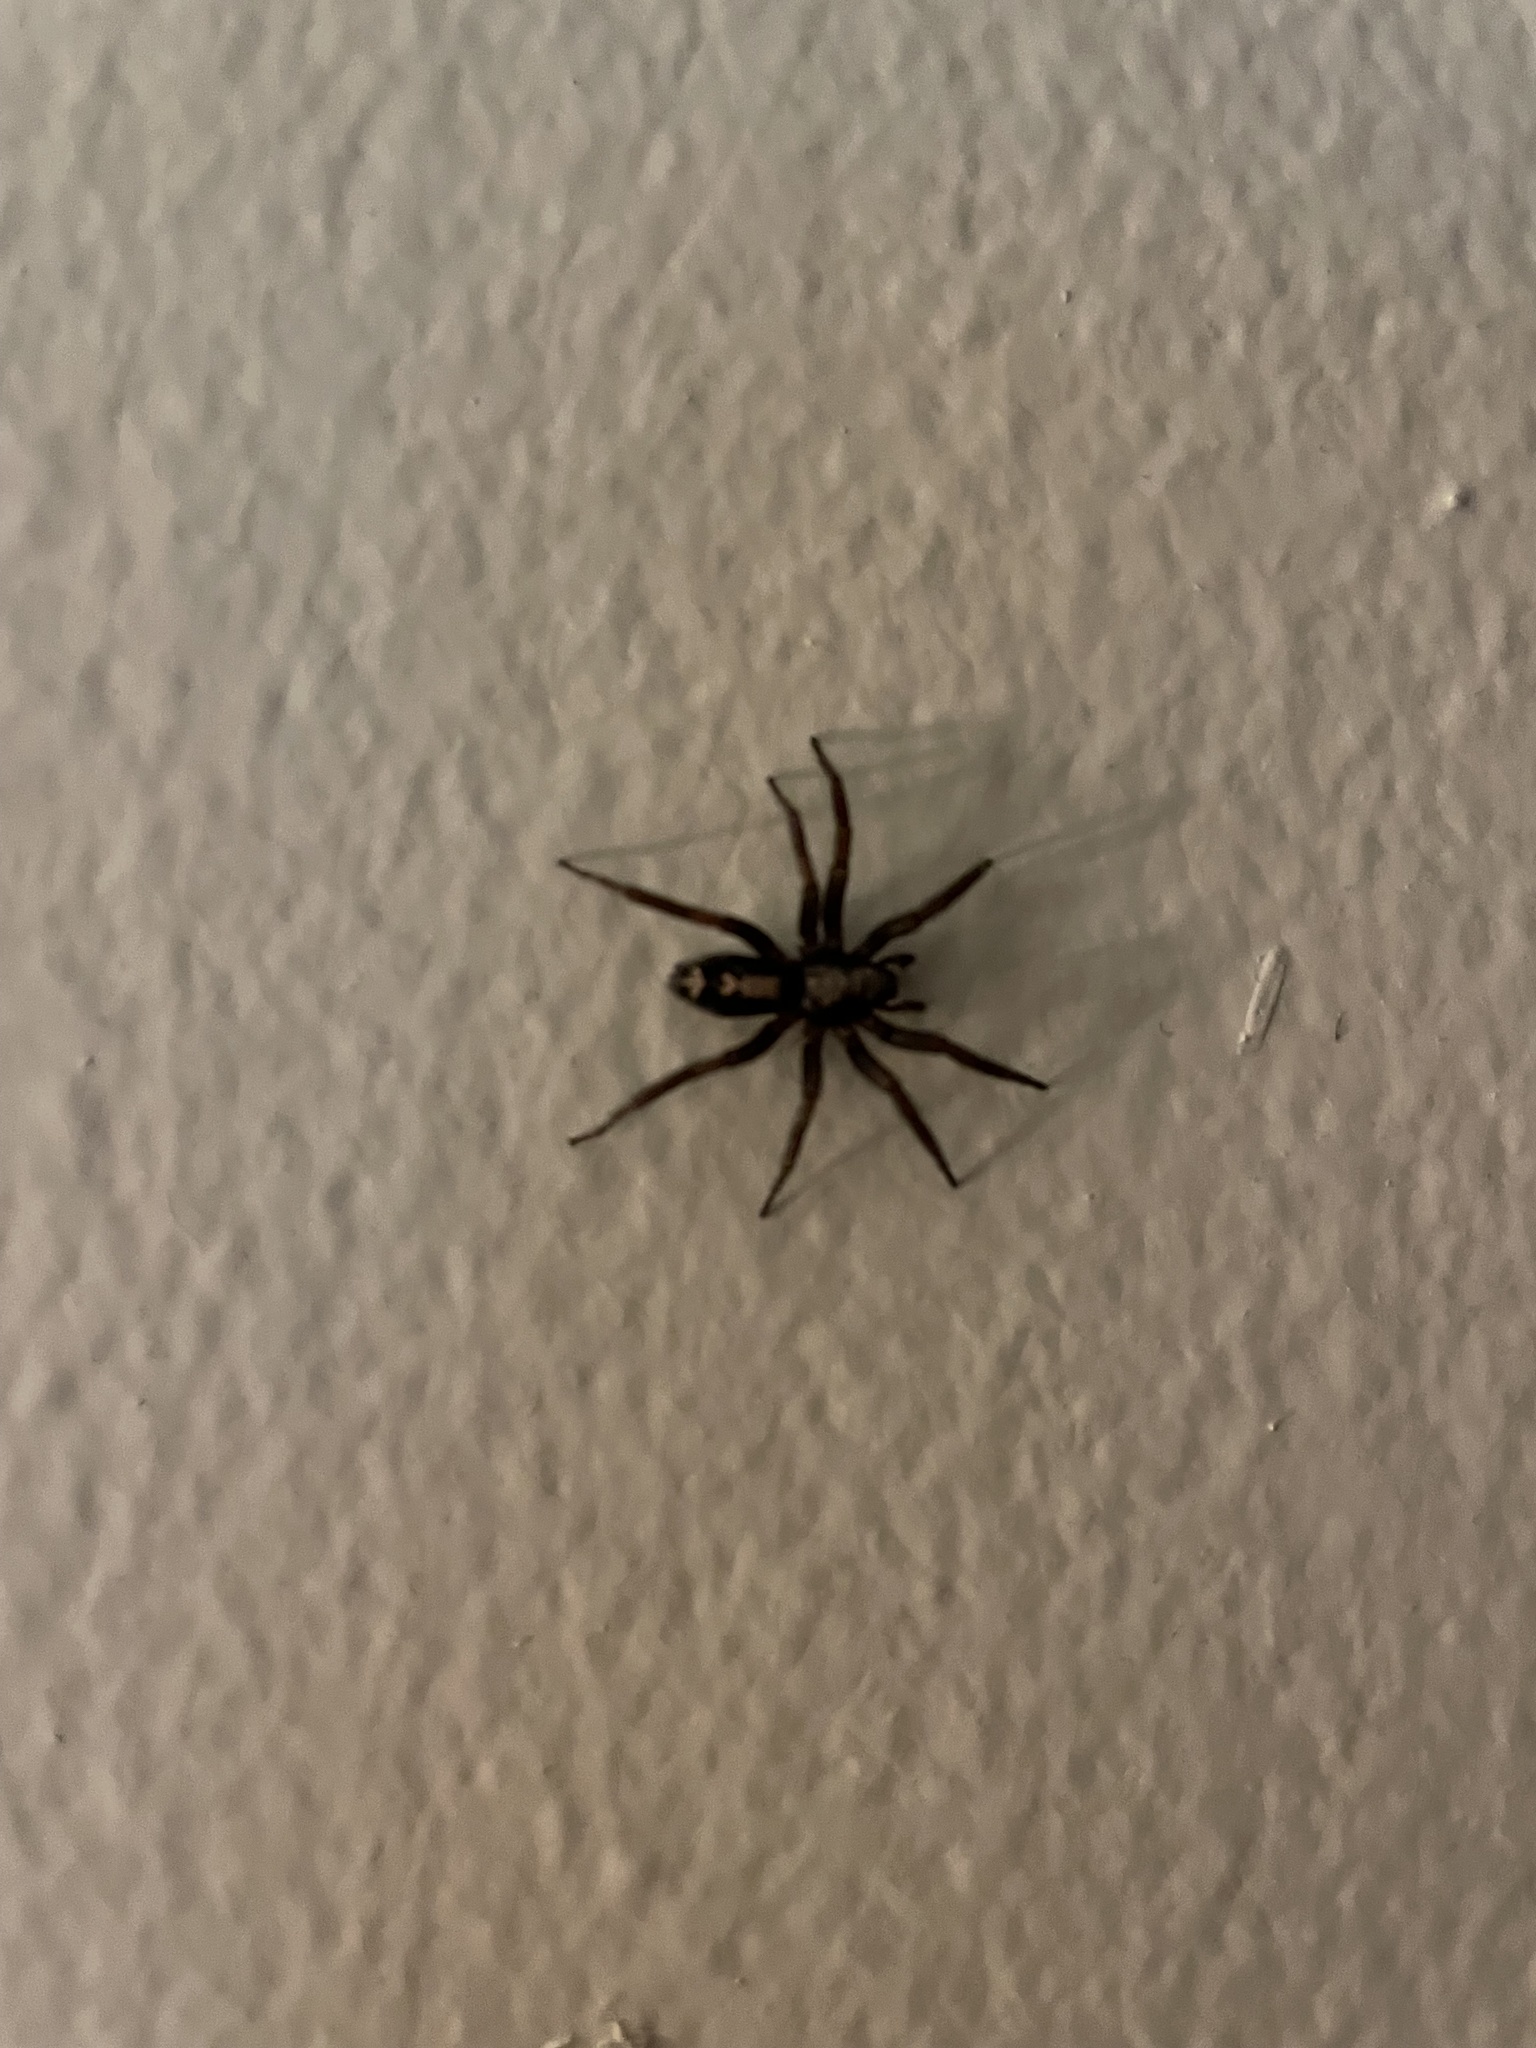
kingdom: Animalia
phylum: Arthropoda
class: Arachnida
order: Araneae
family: Gnaphosidae
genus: Herpyllus
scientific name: Herpyllus ecclesiasticus
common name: Eastern parson spider
